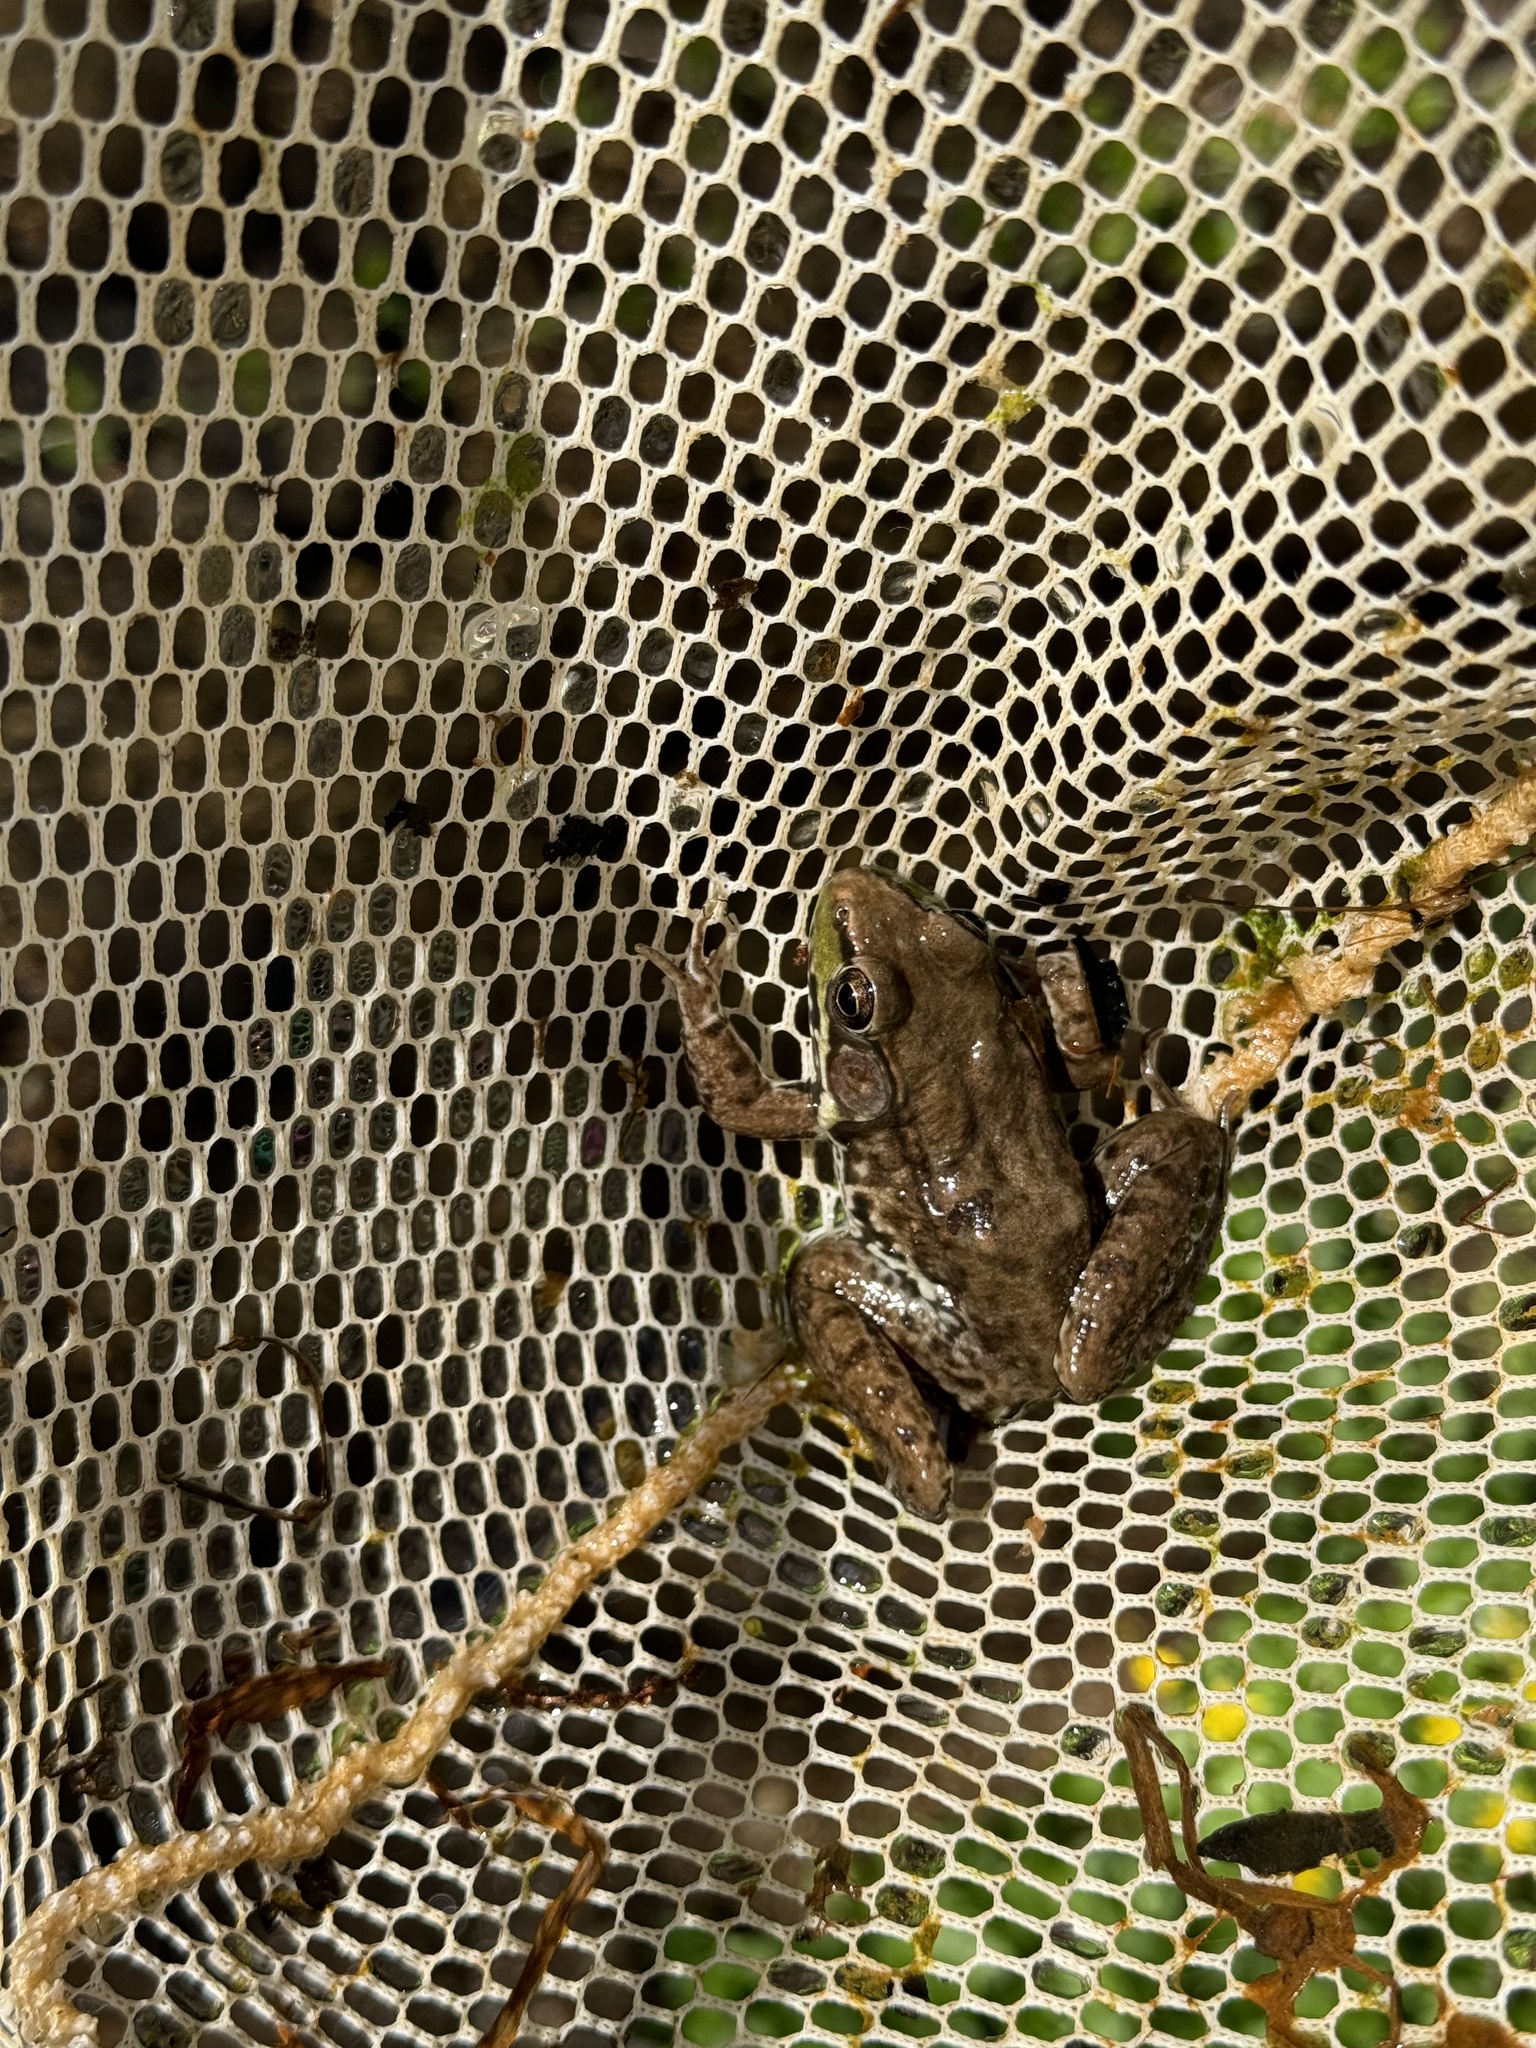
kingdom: Animalia
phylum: Chordata
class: Amphibia
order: Anura
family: Ranidae
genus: Lithobates
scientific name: Lithobates clamitans
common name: Green frog
